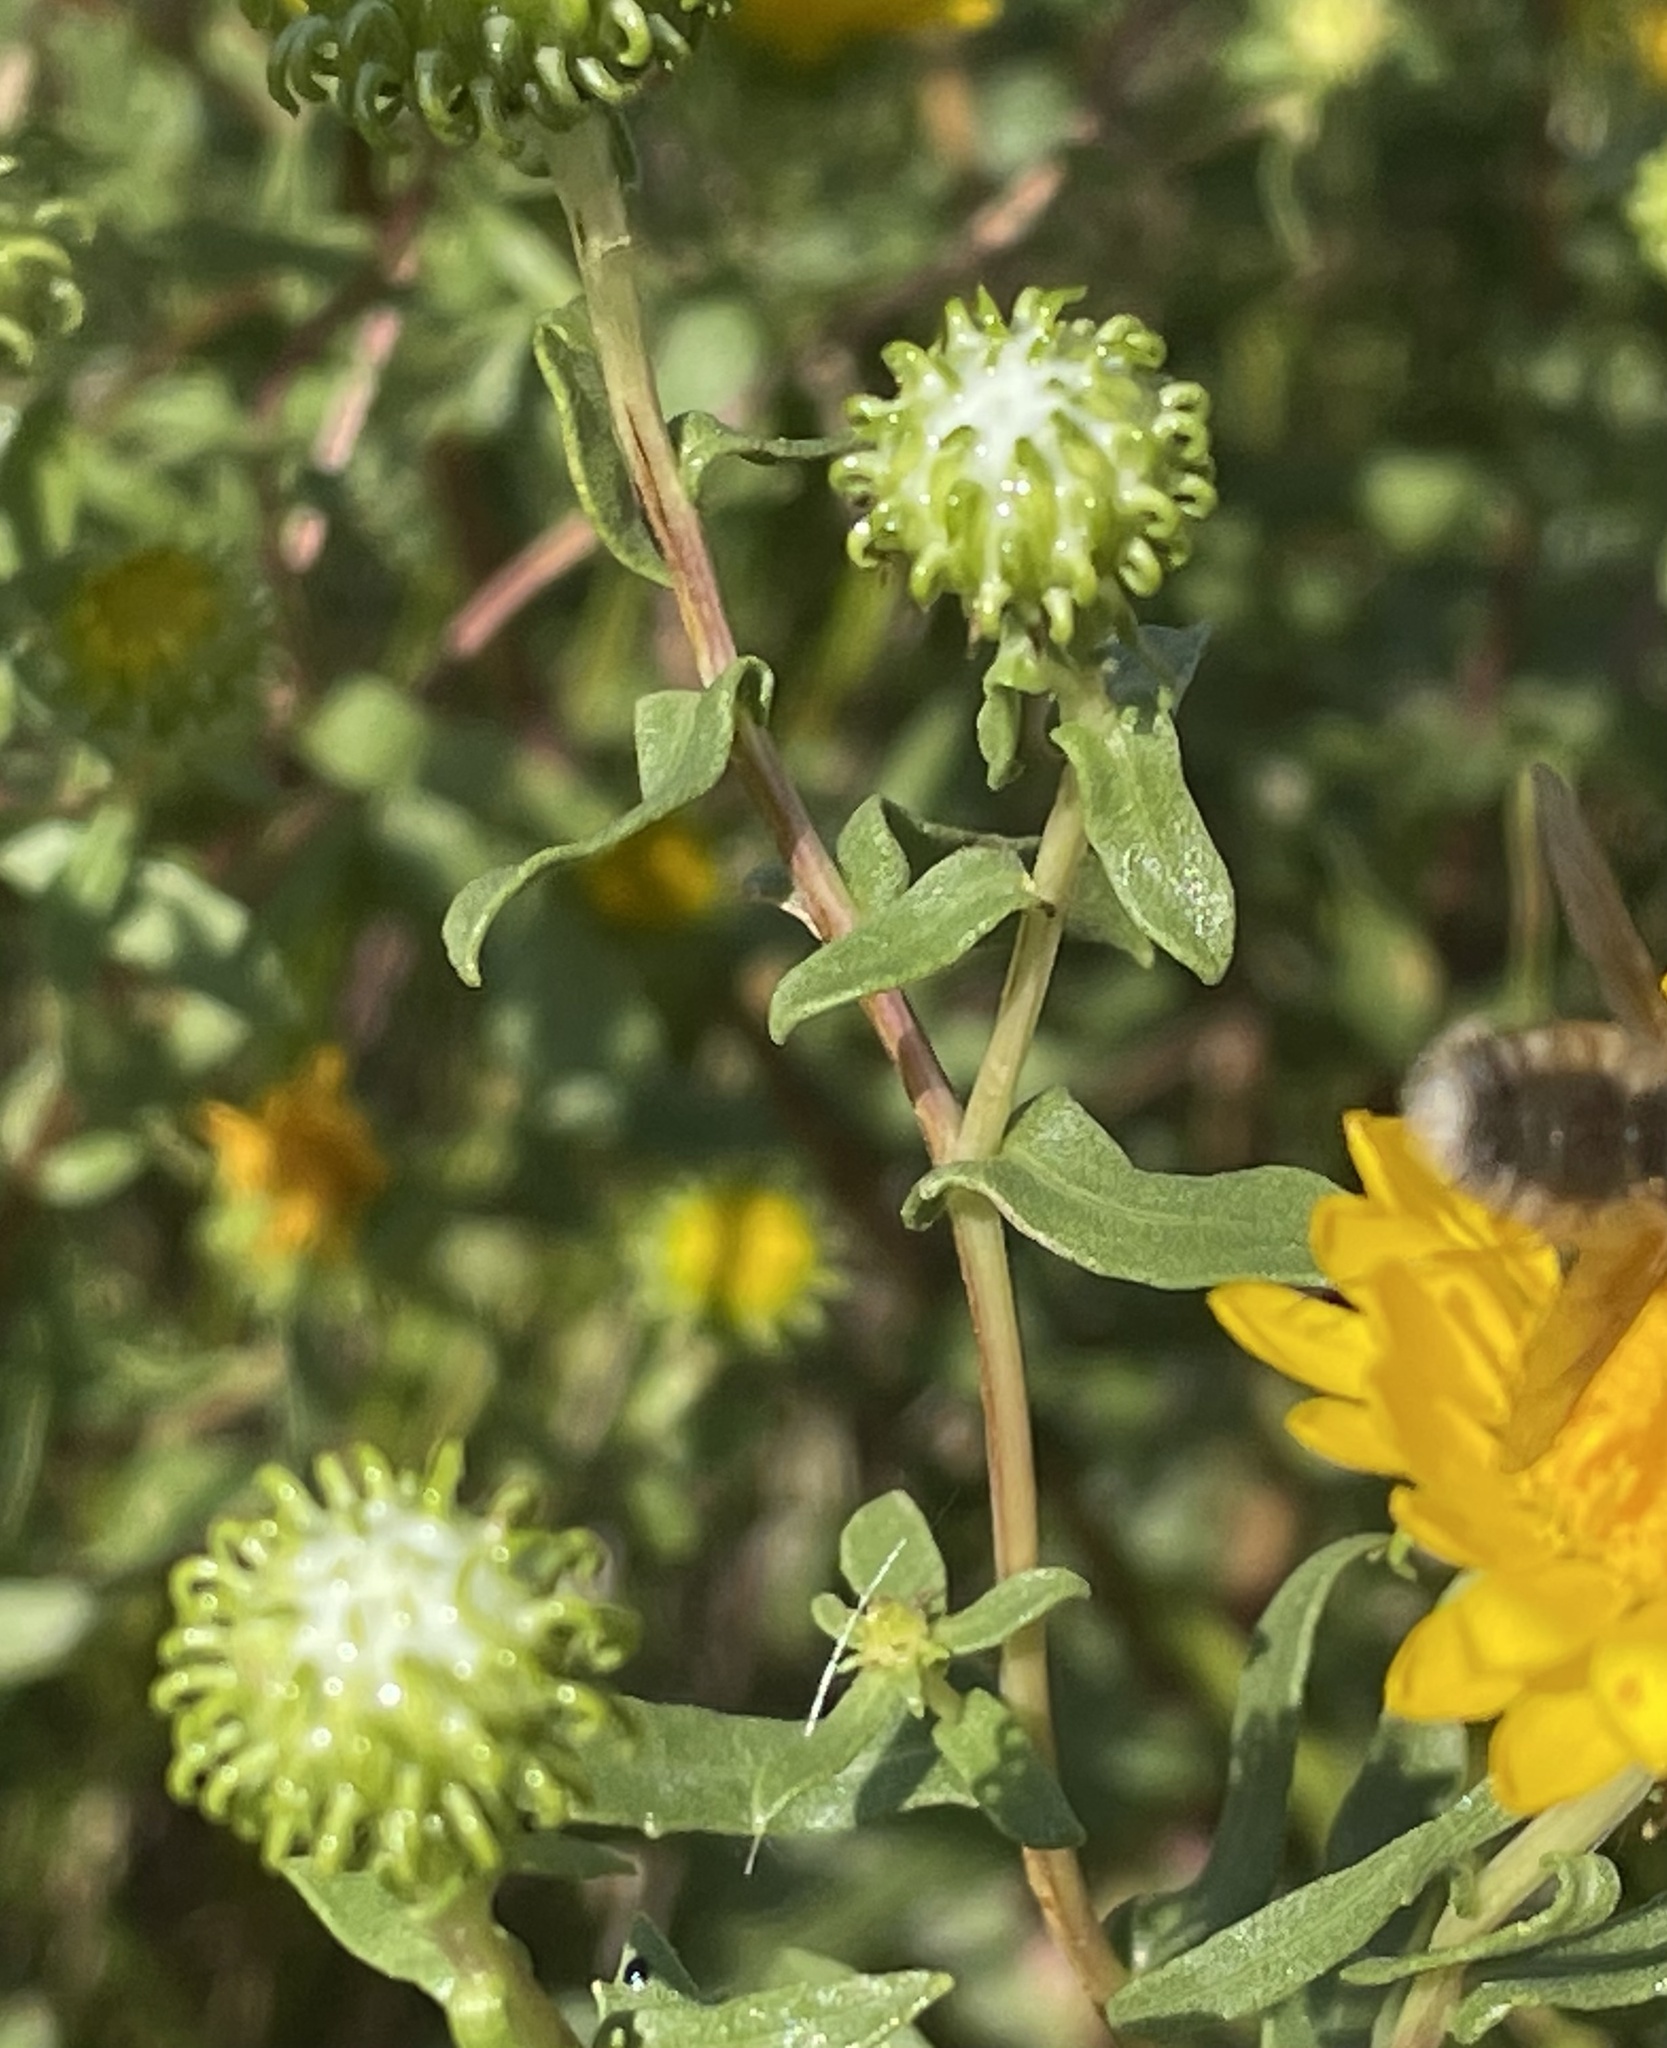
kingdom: Plantae
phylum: Tracheophyta
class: Magnoliopsida
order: Asterales
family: Asteraceae
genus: Grindelia
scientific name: Grindelia squarrosa
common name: Curly-cup gumweed
